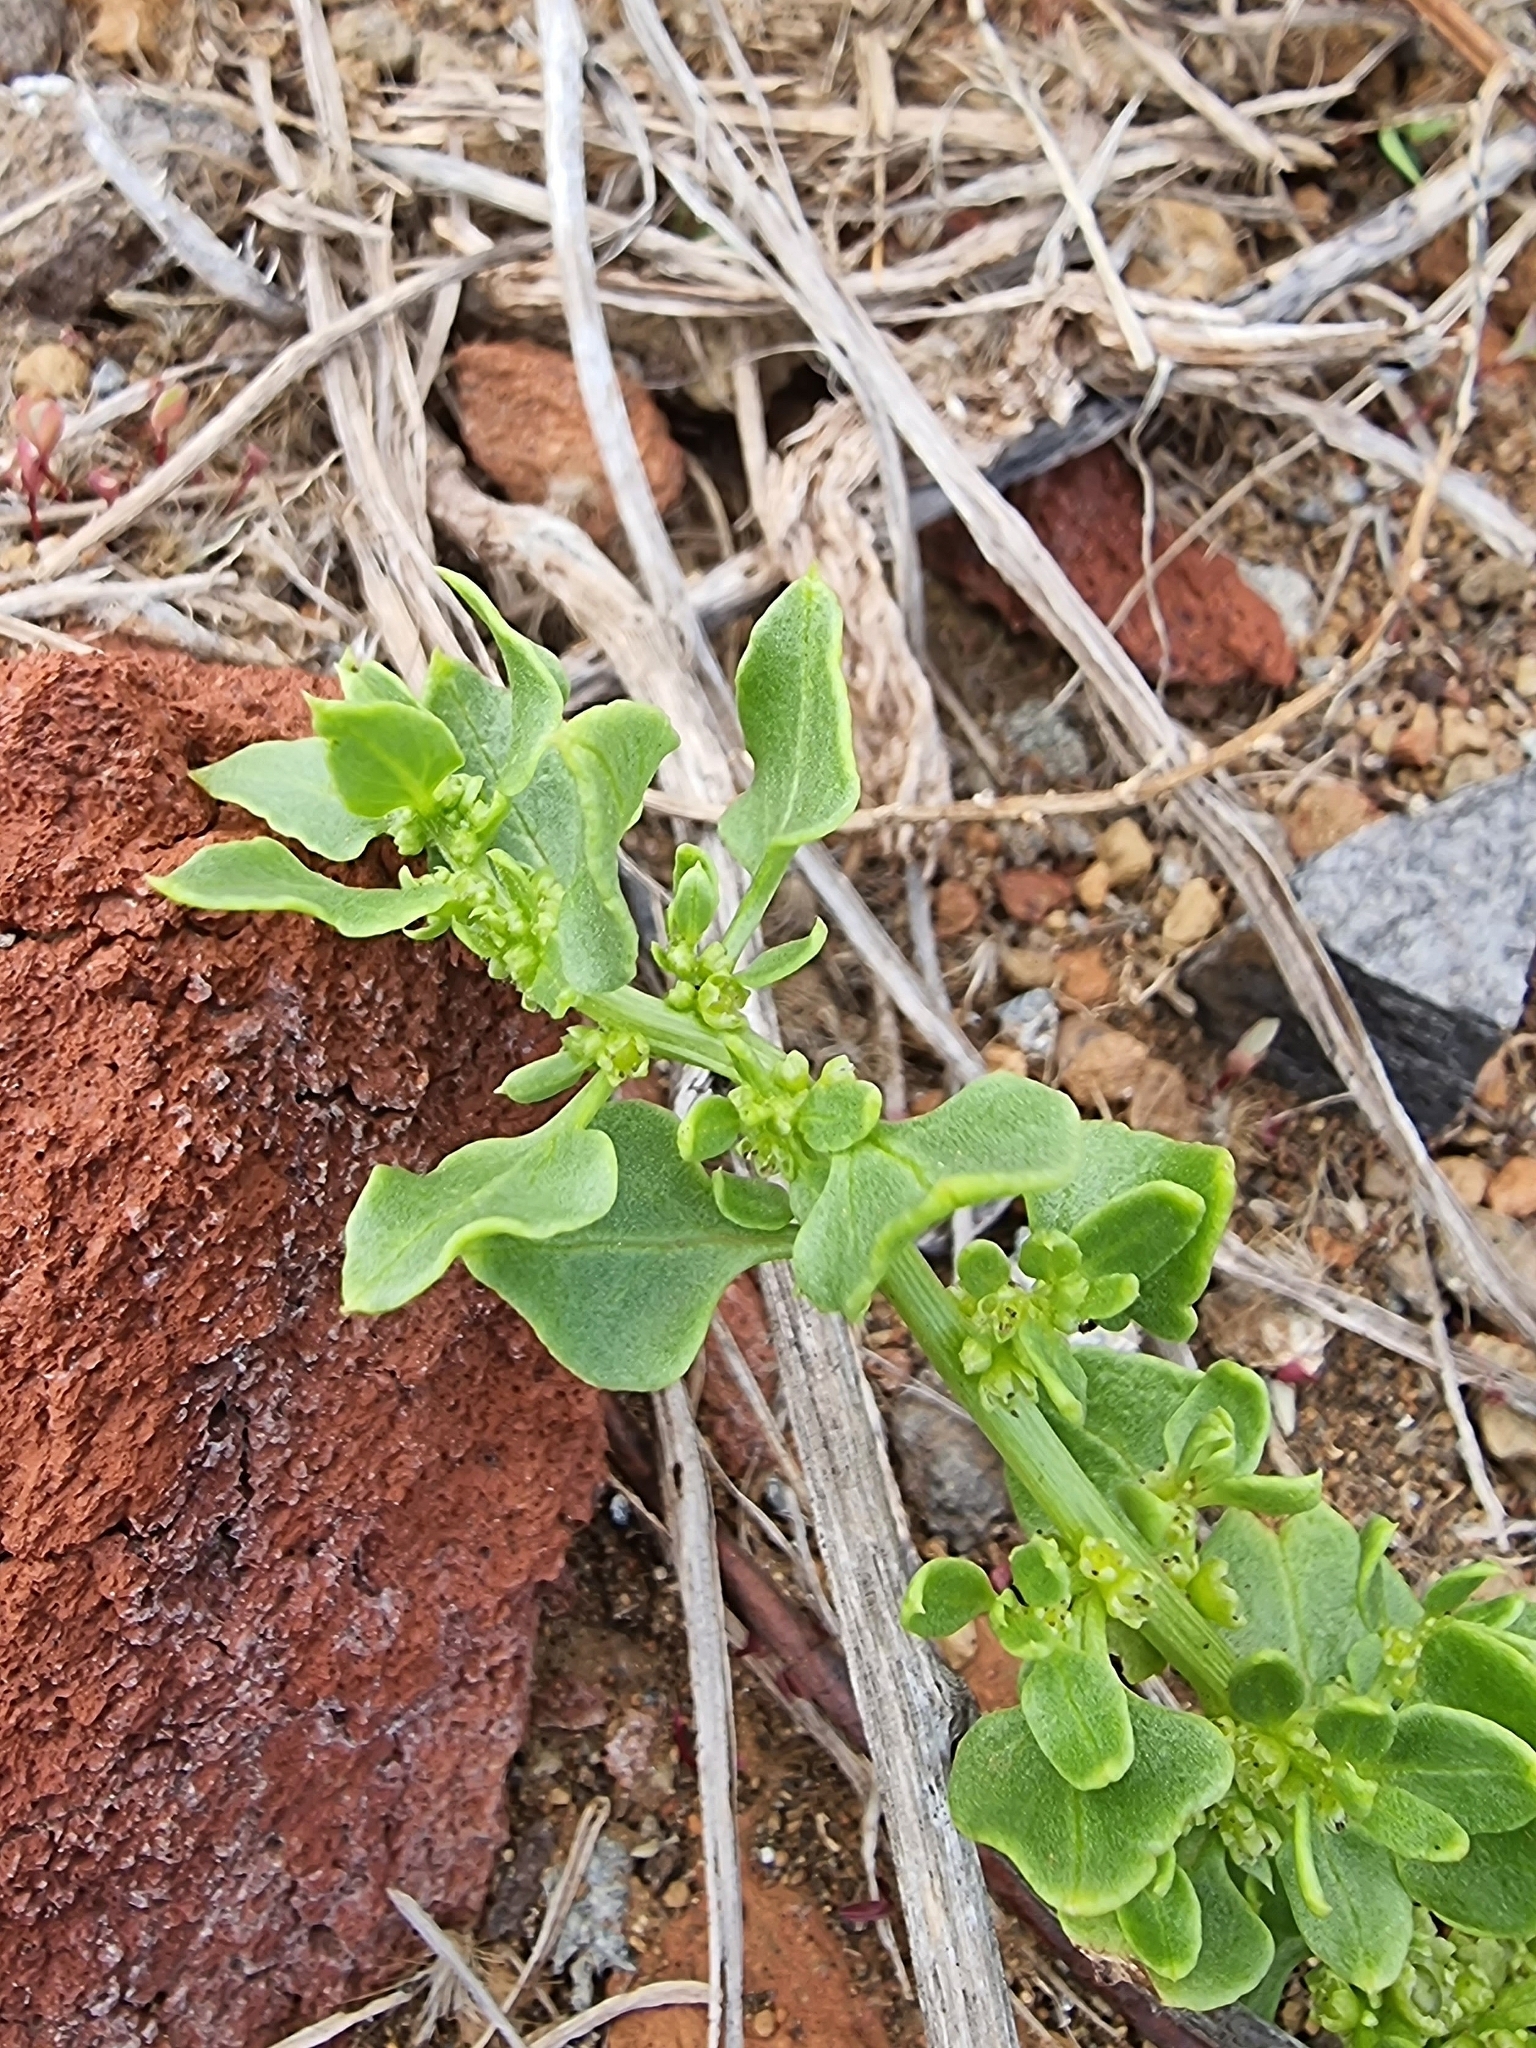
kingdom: Plantae
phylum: Tracheophyta
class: Magnoliopsida
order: Caryophyllales
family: Amaranthaceae
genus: Patellifolia
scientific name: Patellifolia procumbens
